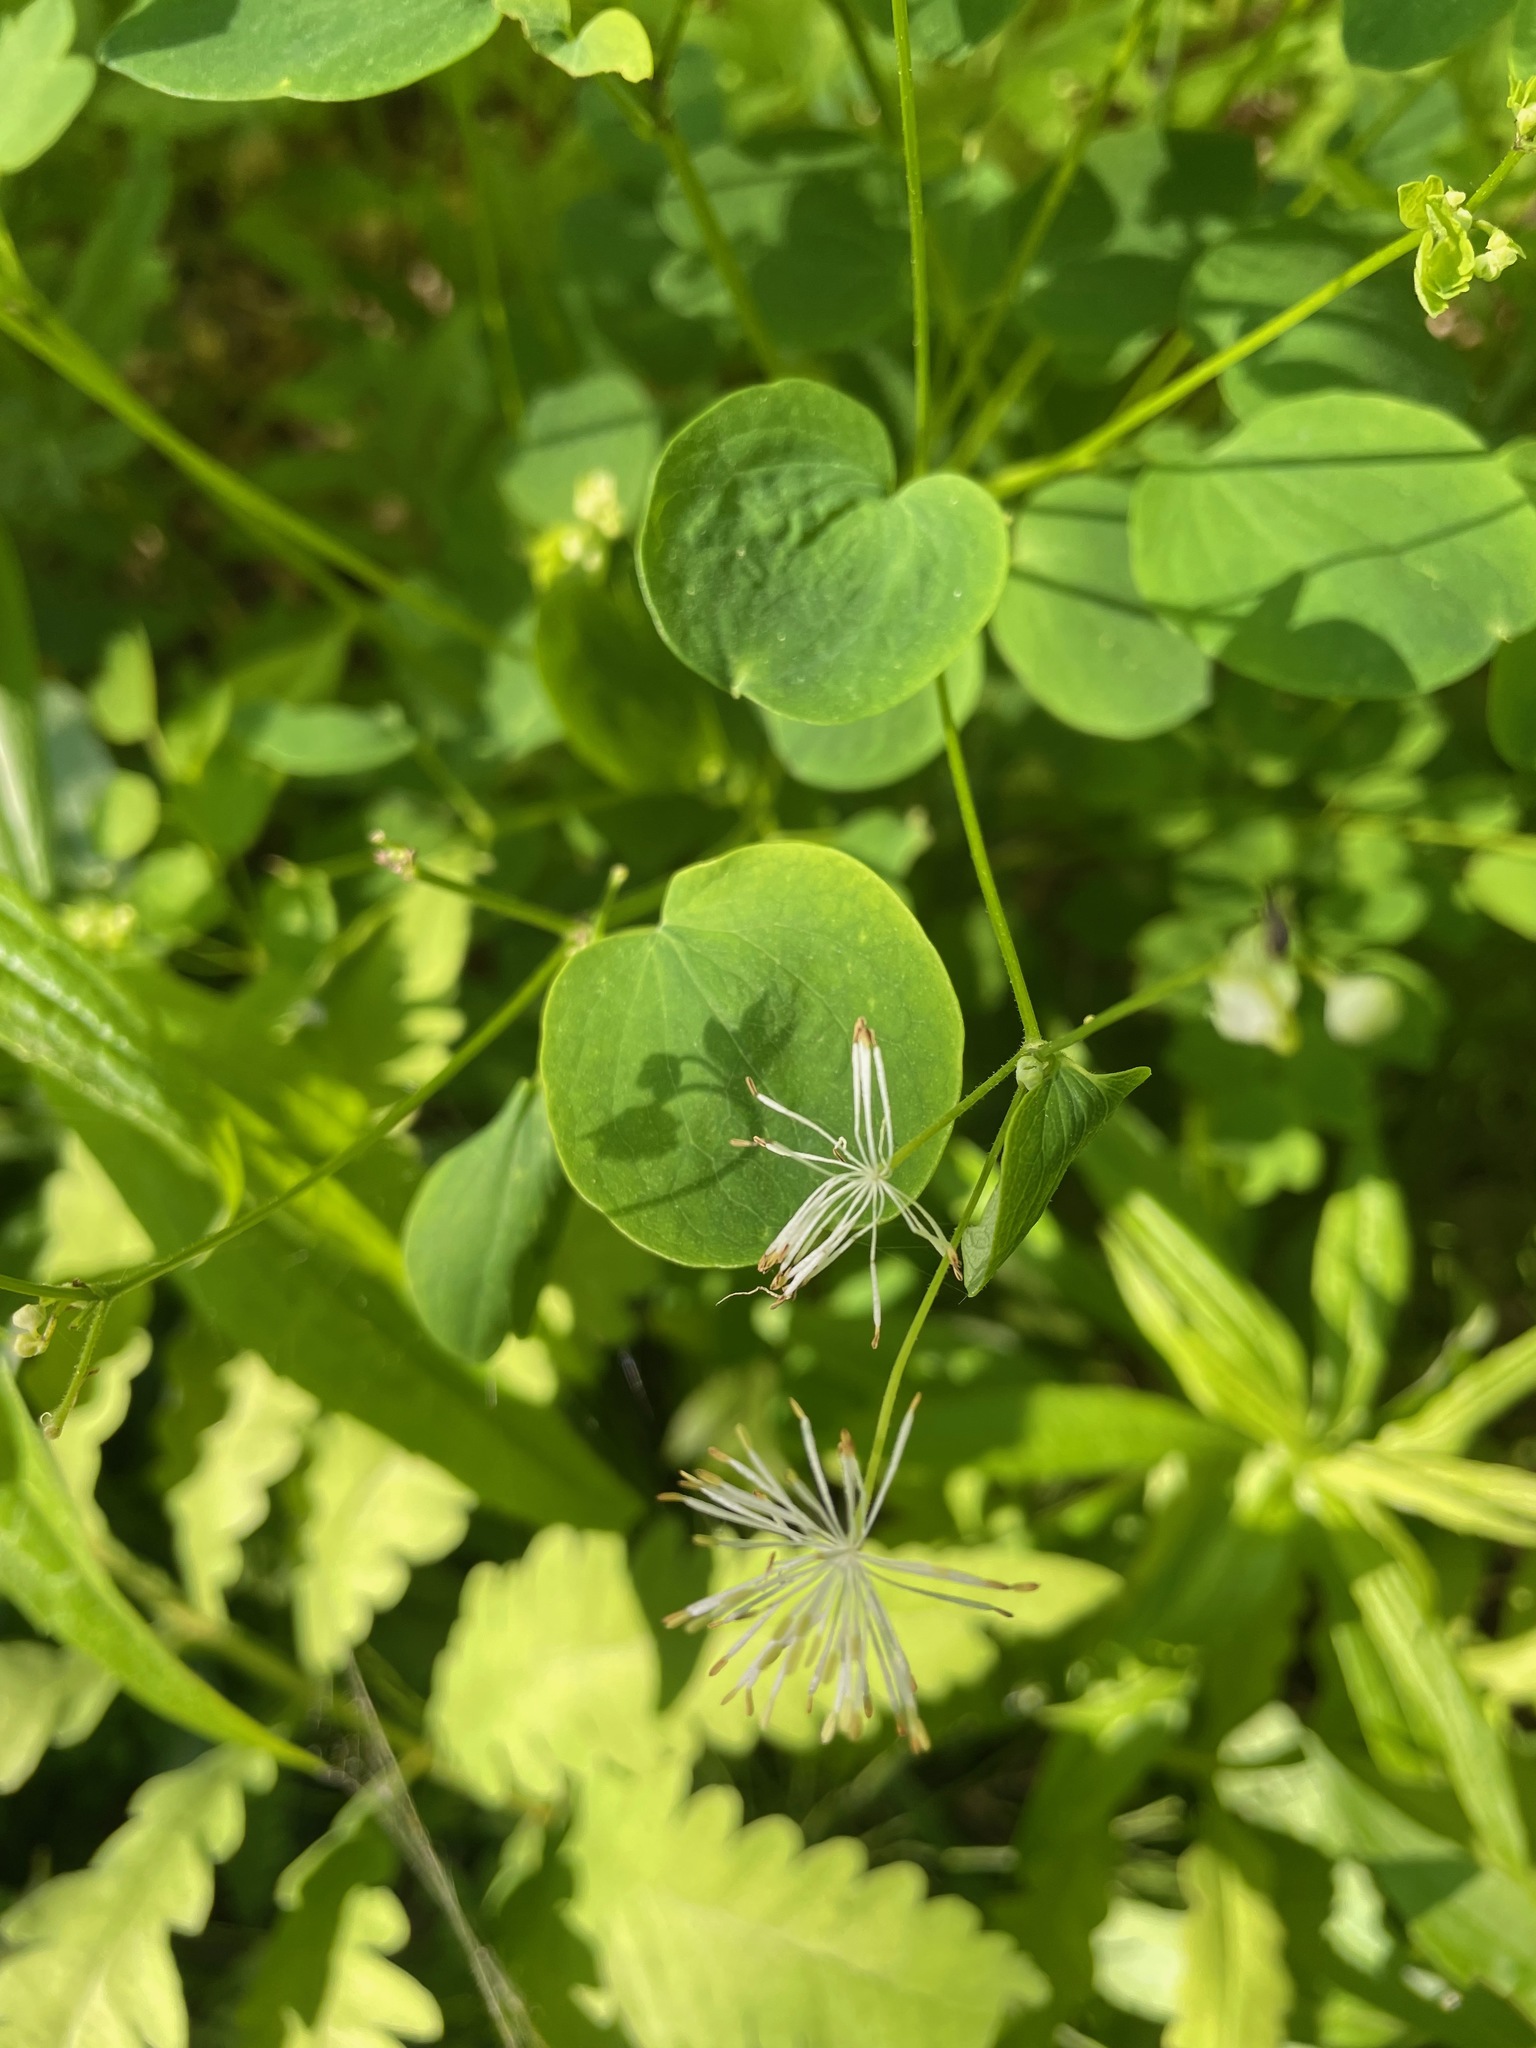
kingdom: Plantae
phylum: Tracheophyta
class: Magnoliopsida
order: Ranunculales
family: Ranunculaceae
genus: Thalictrum
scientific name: Thalictrum pubescens
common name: King-of-the-meadow
